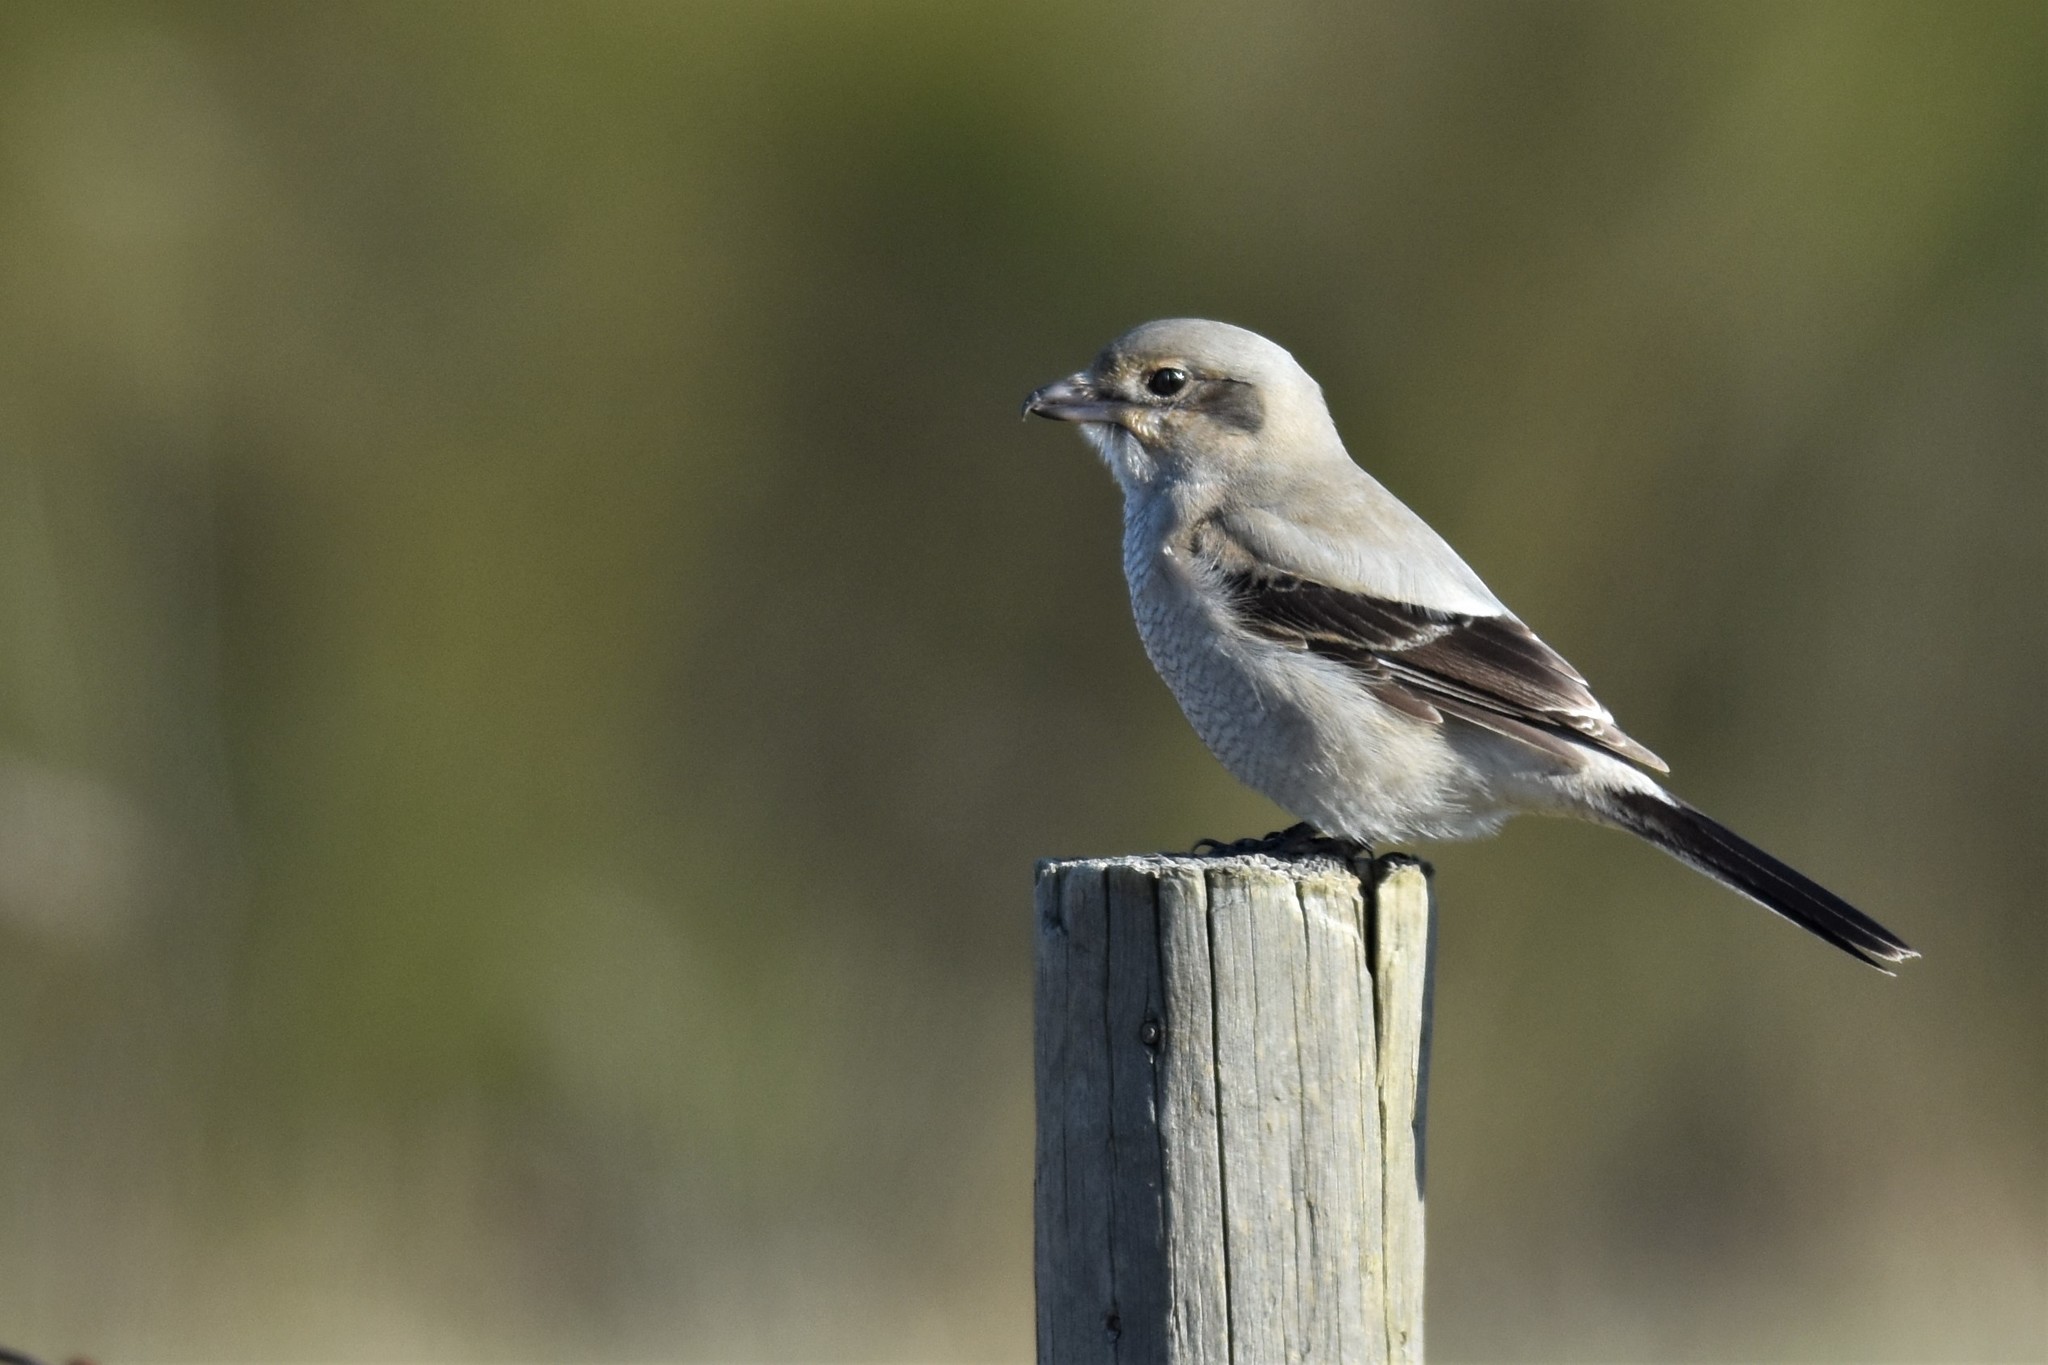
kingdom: Animalia
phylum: Chordata
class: Aves
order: Passeriformes
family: Laniidae
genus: Lanius
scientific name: Lanius borealis
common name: Northern shrike
